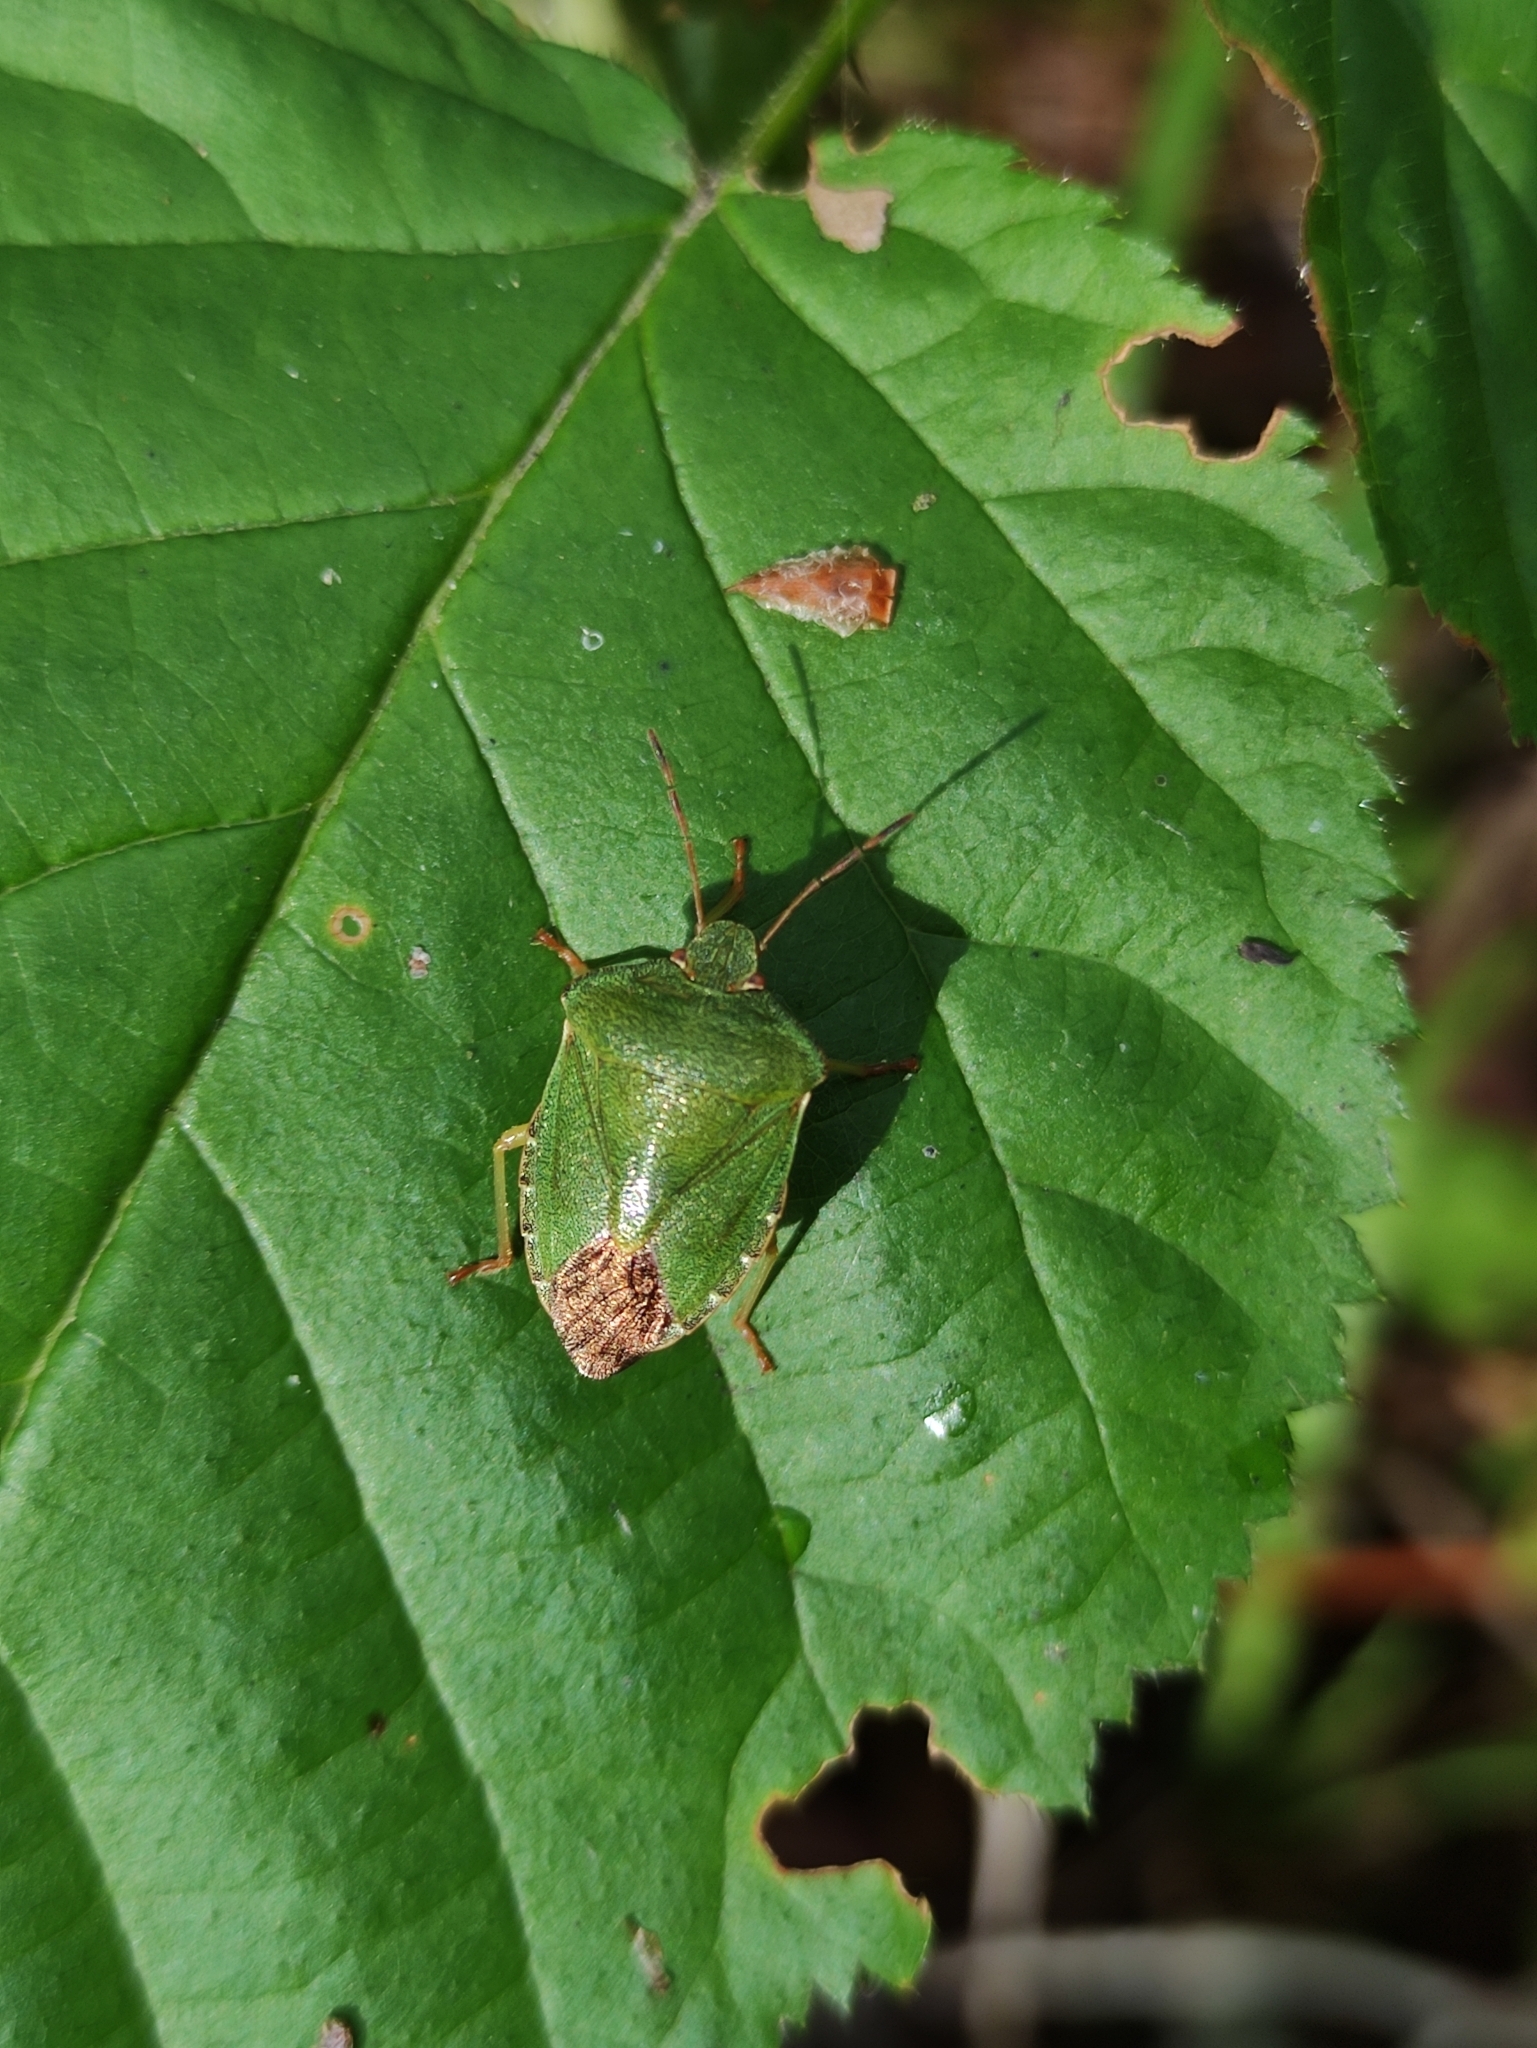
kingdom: Animalia
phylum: Arthropoda
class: Insecta
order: Hemiptera
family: Pentatomidae
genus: Palomena
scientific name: Palomena prasina
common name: Green shieldbug
